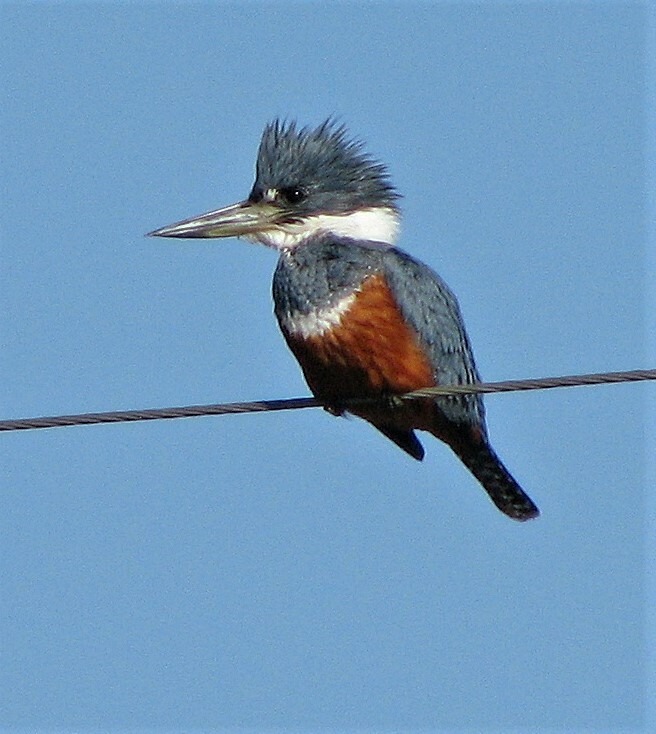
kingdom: Animalia
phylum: Chordata
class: Aves
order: Coraciiformes
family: Alcedinidae
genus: Megaceryle
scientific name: Megaceryle torquata
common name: Ringed kingfisher
